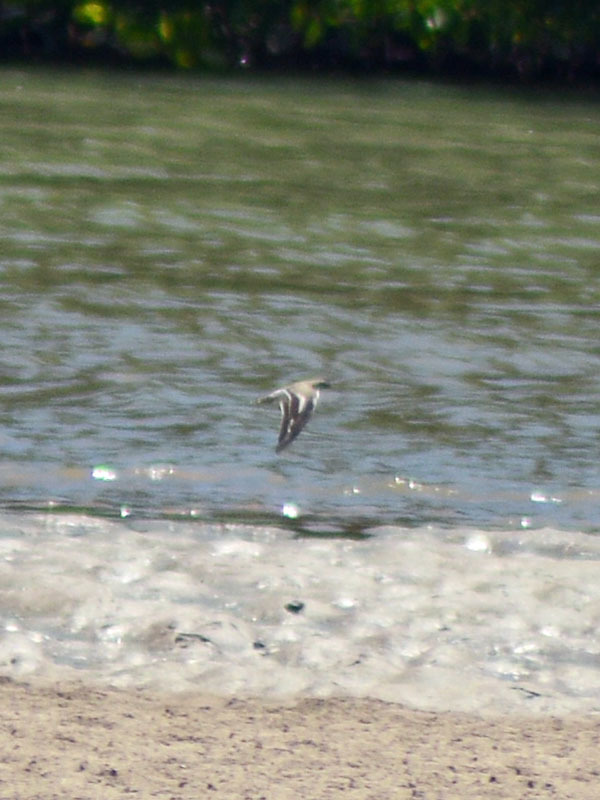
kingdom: Animalia
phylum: Chordata
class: Aves
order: Charadriiformes
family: Scolopacidae
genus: Actitis
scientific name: Actitis macularius
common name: Spotted sandpiper
